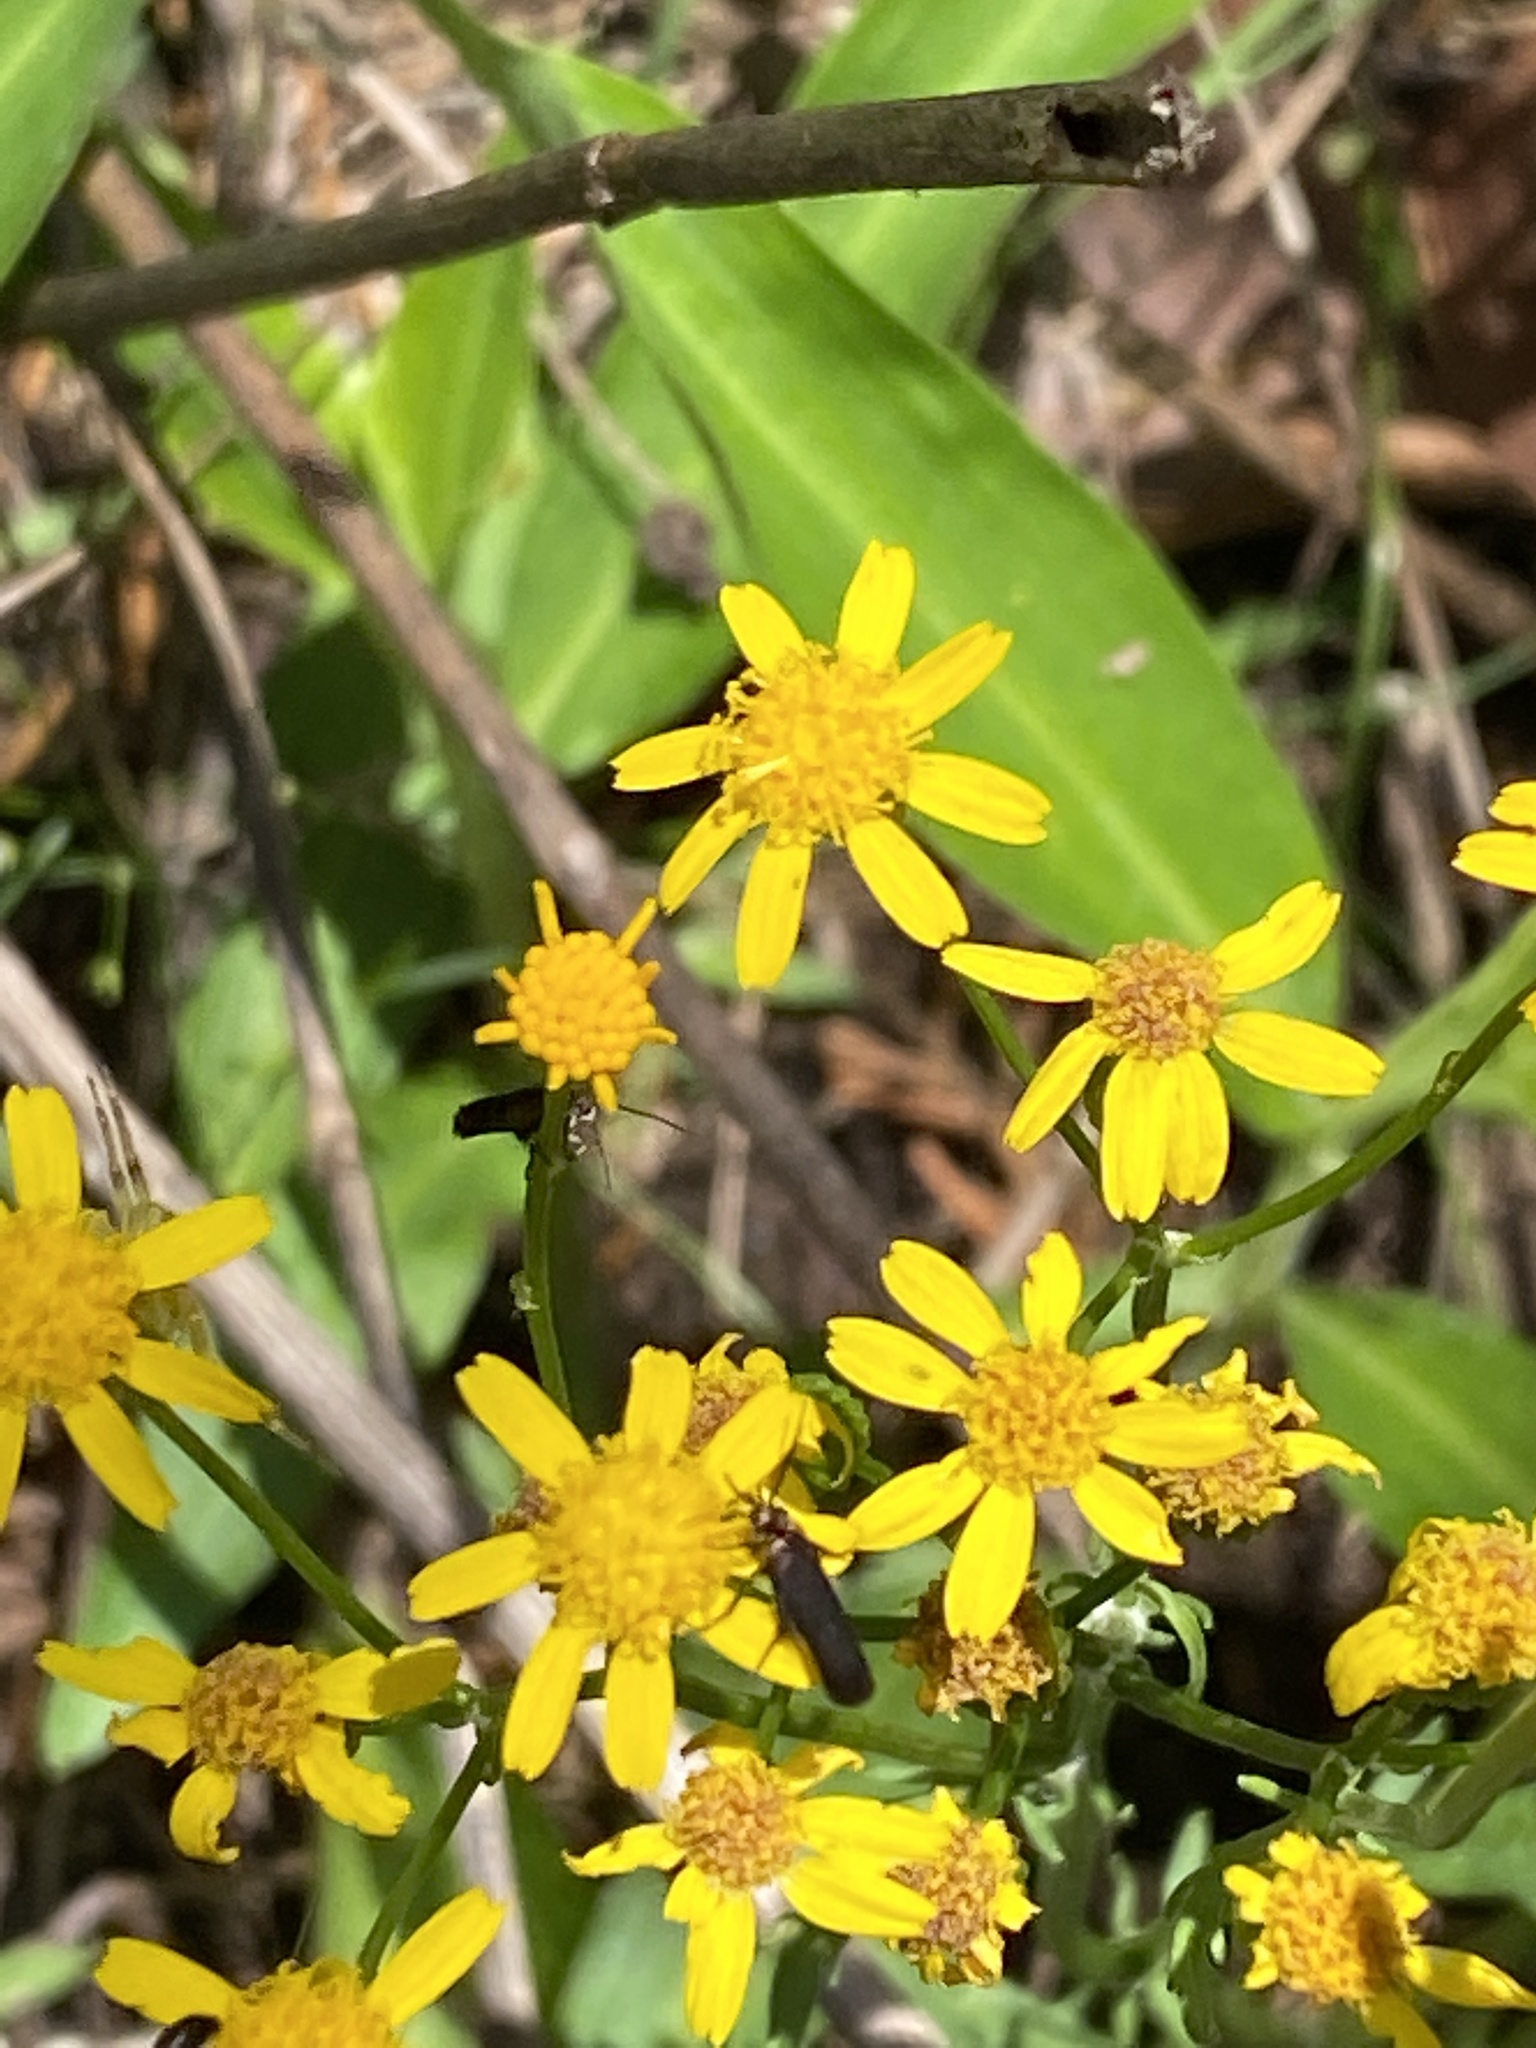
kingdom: Plantae
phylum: Tracheophyta
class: Magnoliopsida
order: Asterales
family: Asteraceae
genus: Packera
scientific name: Packera anonyma
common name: Small ragwort
